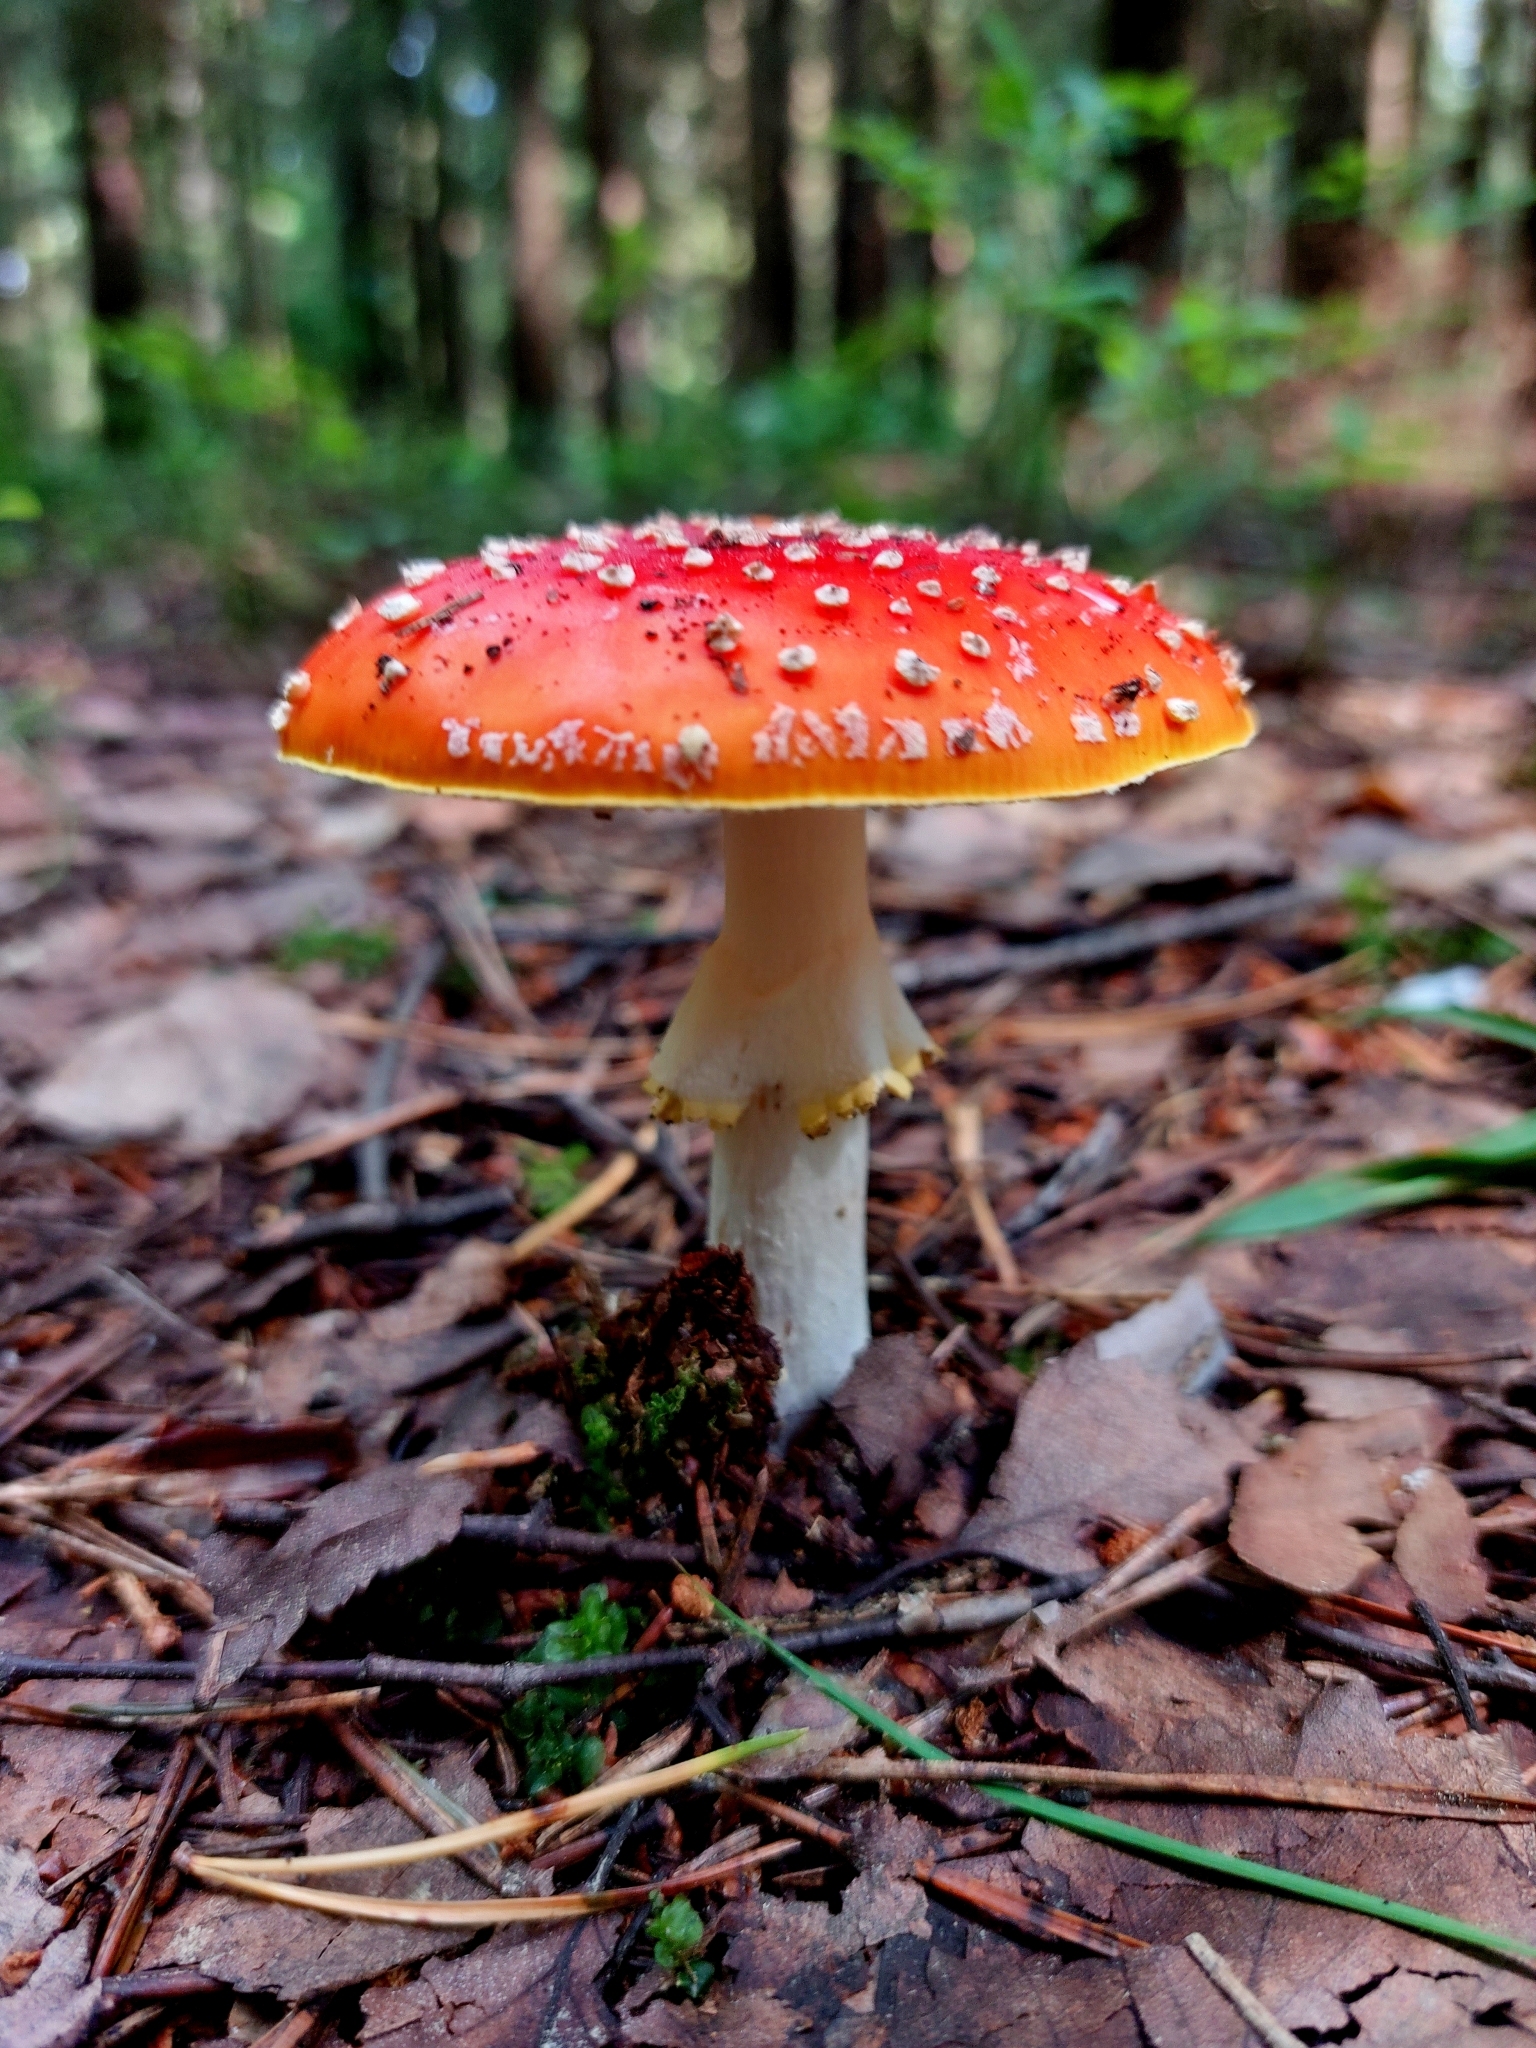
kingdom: Fungi
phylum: Basidiomycota
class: Agaricomycetes
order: Agaricales
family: Amanitaceae
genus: Amanita
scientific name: Amanita muscaria
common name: Fly agaric
